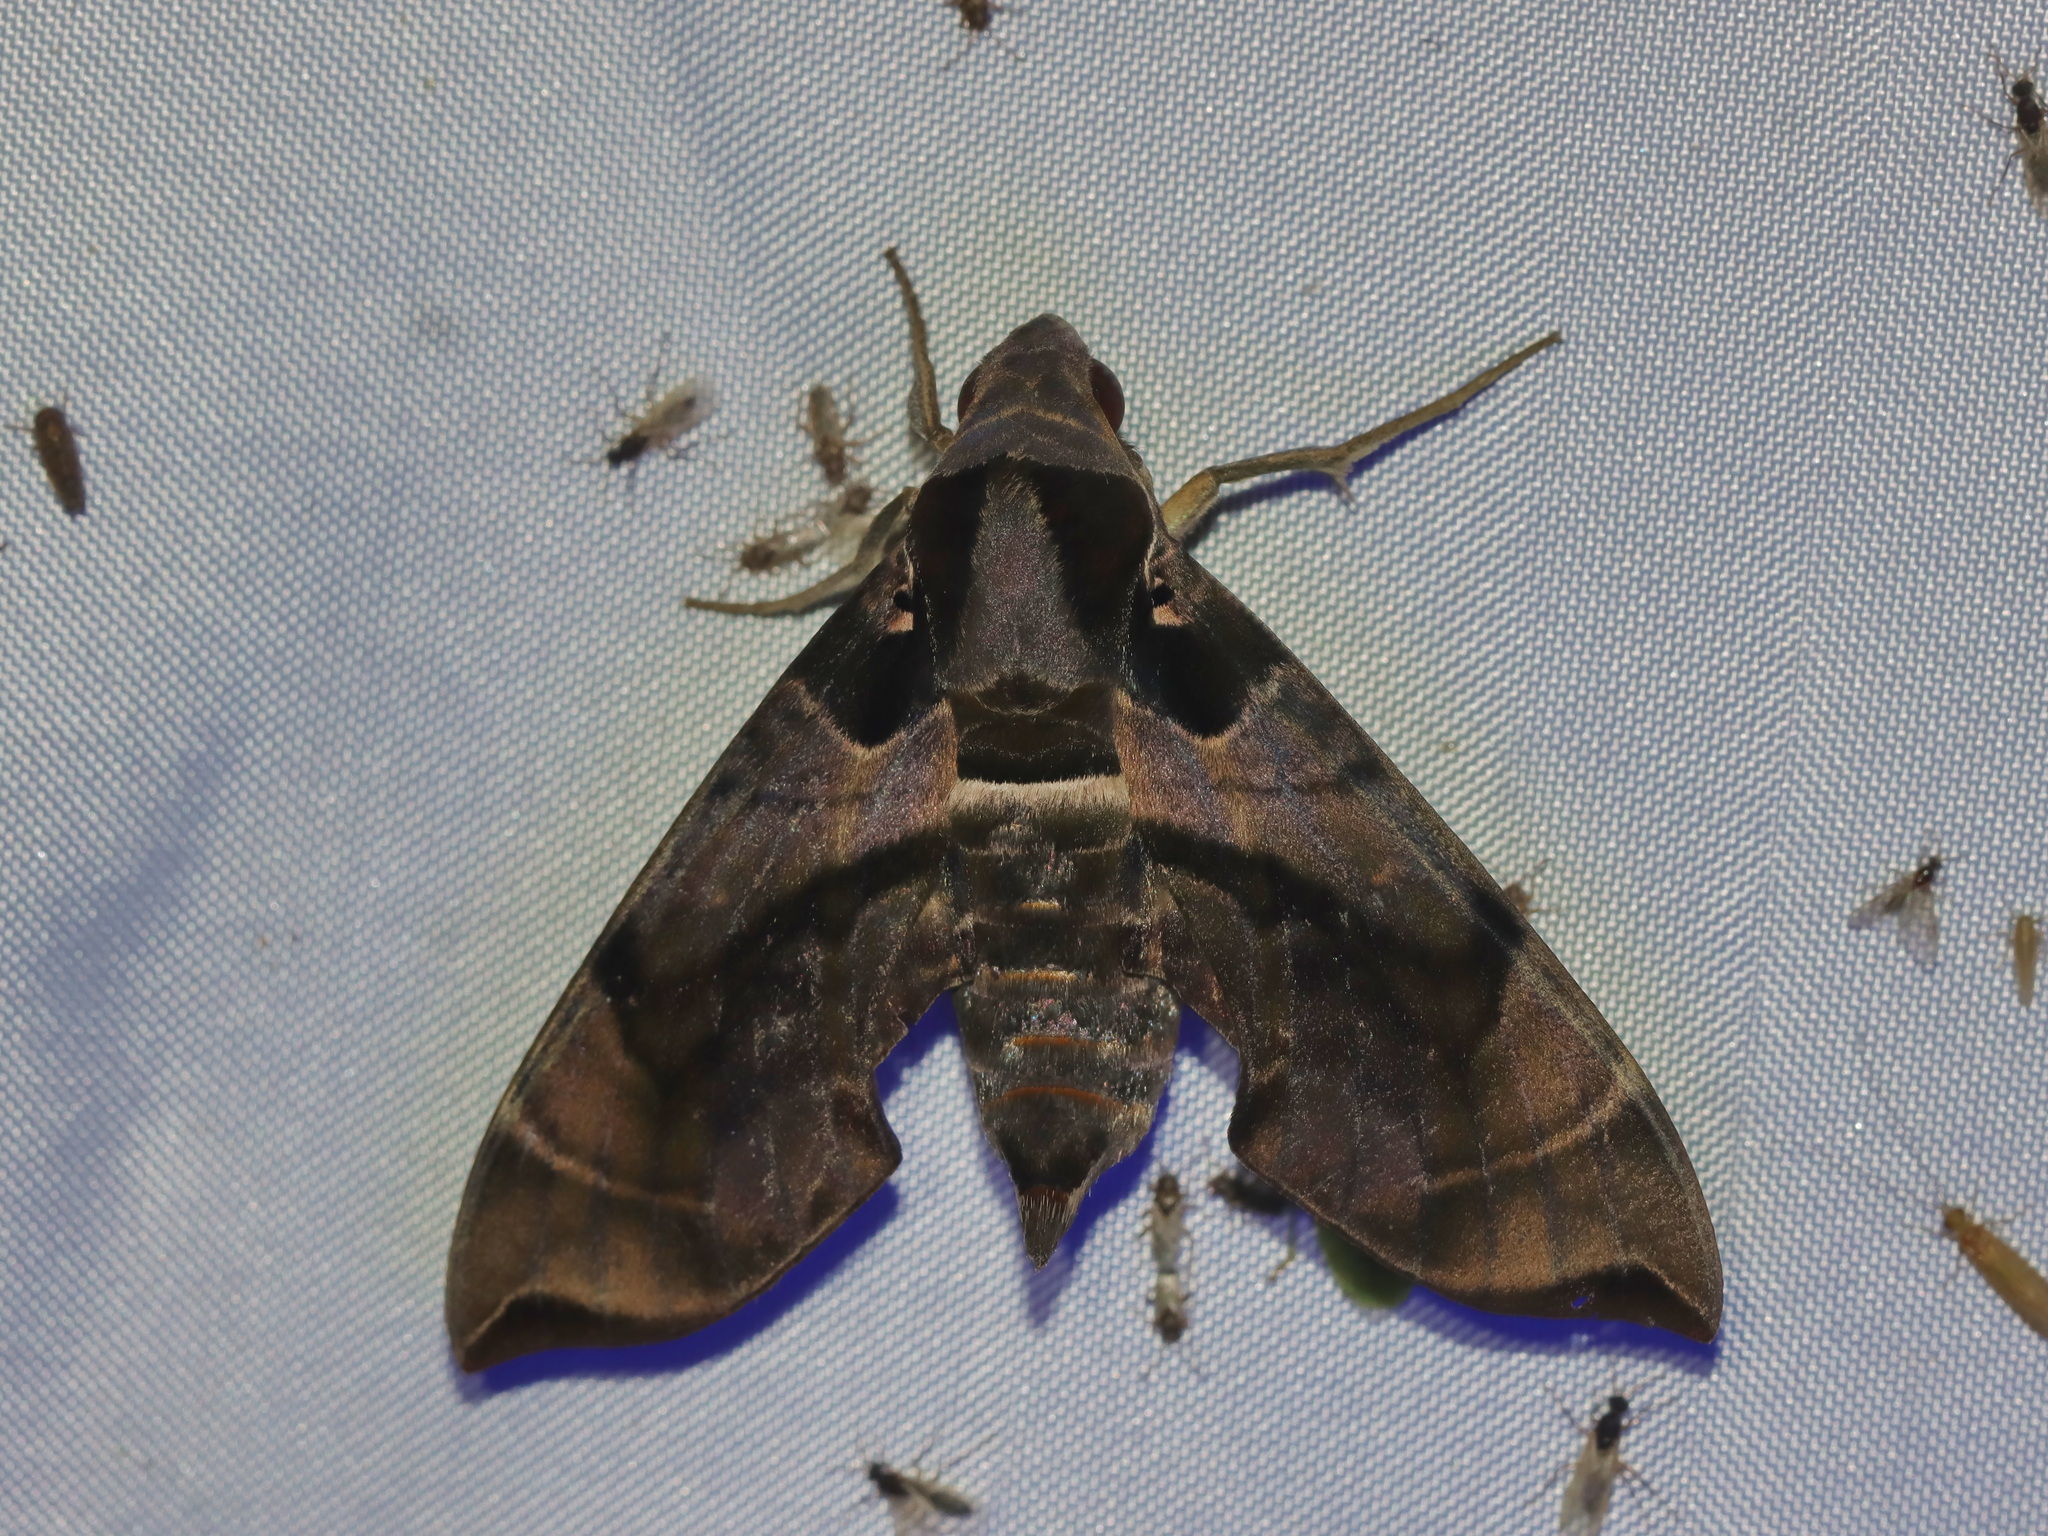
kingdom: Animalia
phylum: Arthropoda
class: Insecta
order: Lepidoptera
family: Sphingidae
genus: Daphnis
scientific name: Daphnis placida
